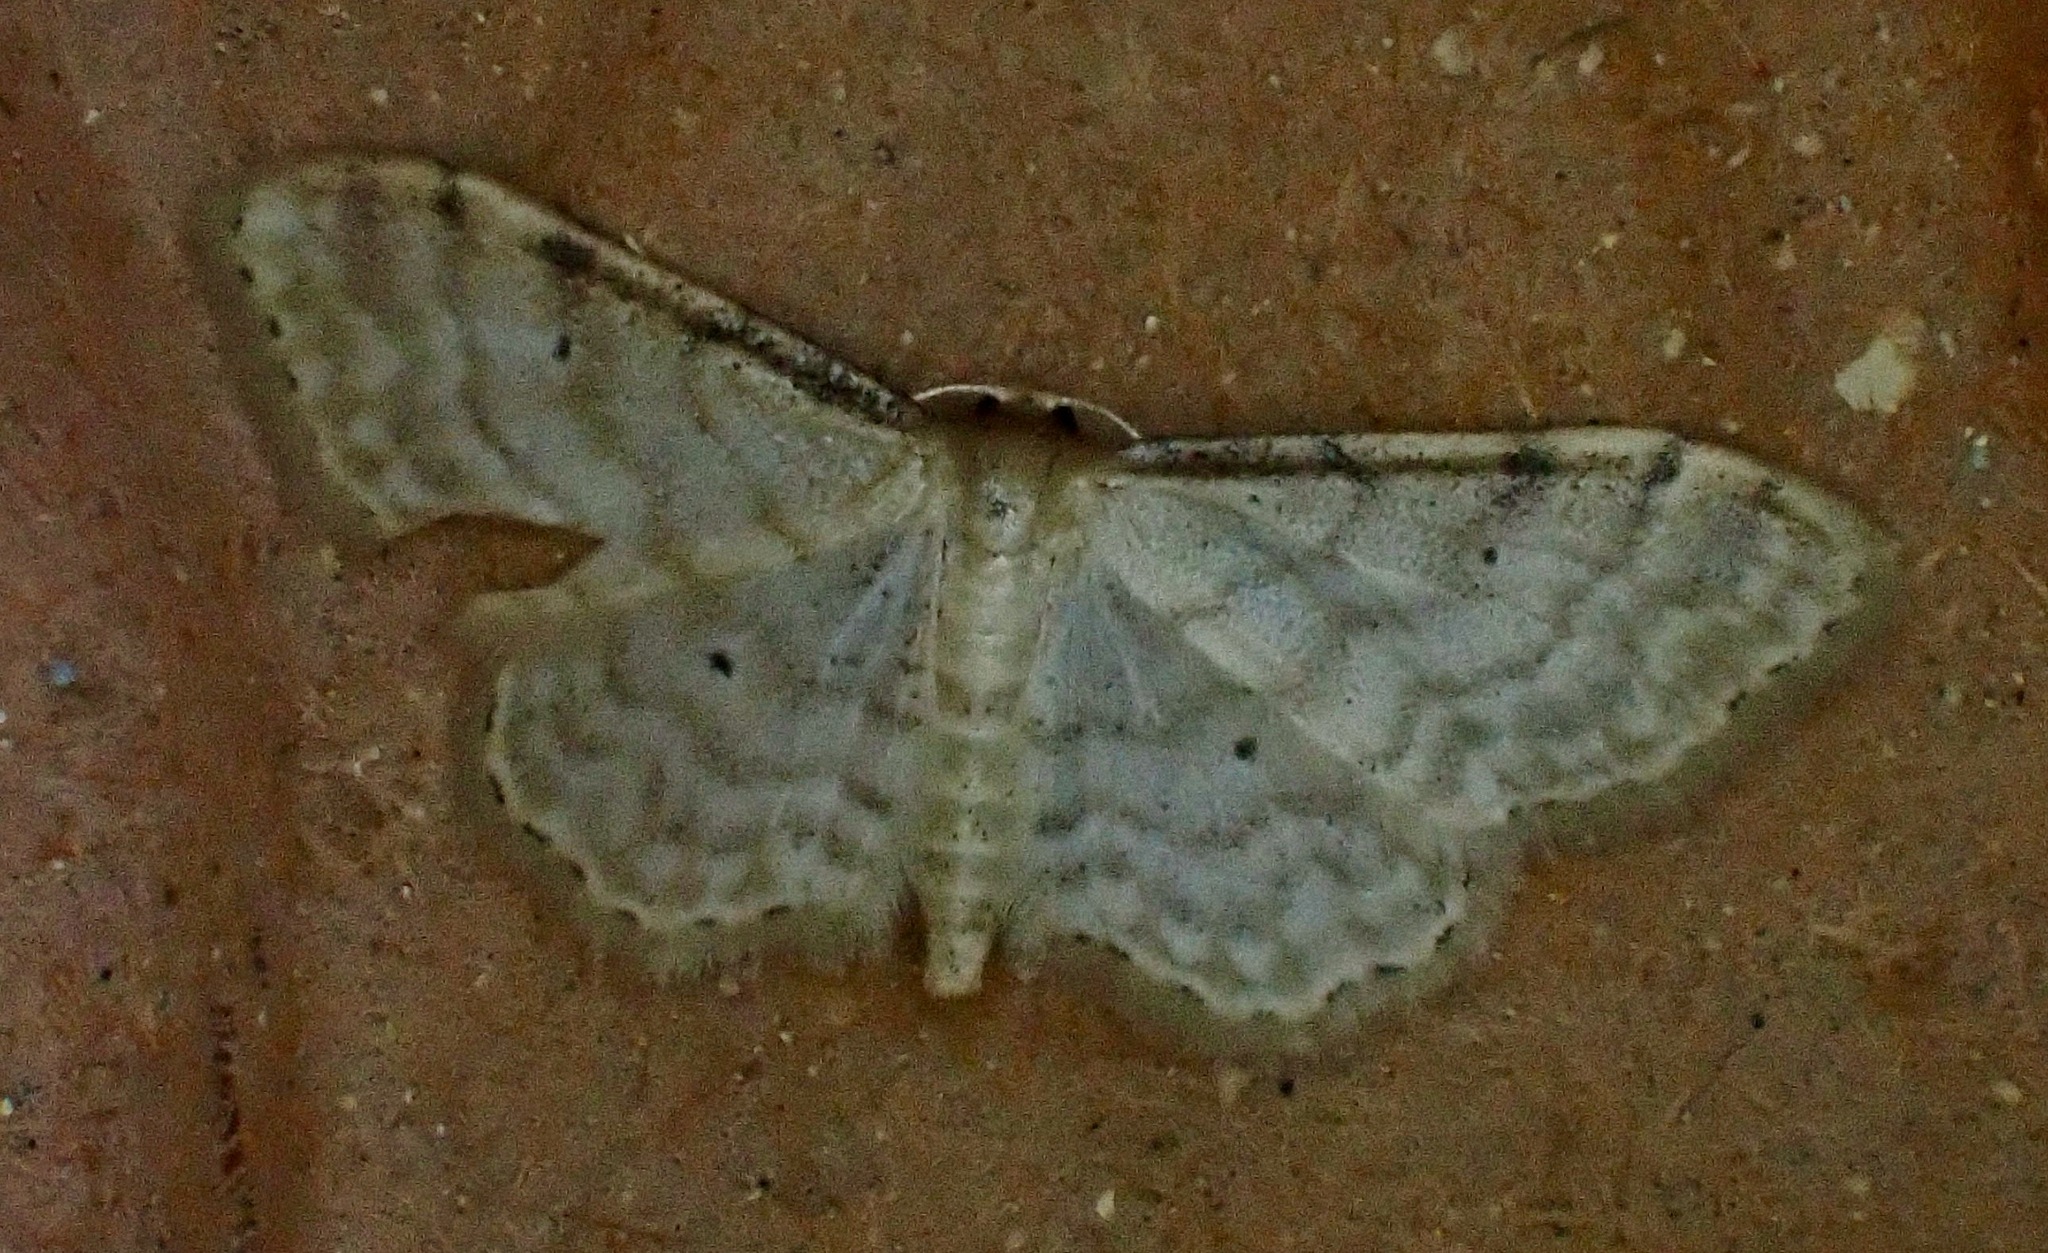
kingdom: Animalia
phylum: Arthropoda
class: Insecta
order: Lepidoptera
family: Geometridae
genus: Idaea
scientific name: Idaea fuscovenosa
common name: Dwarf cream wave
